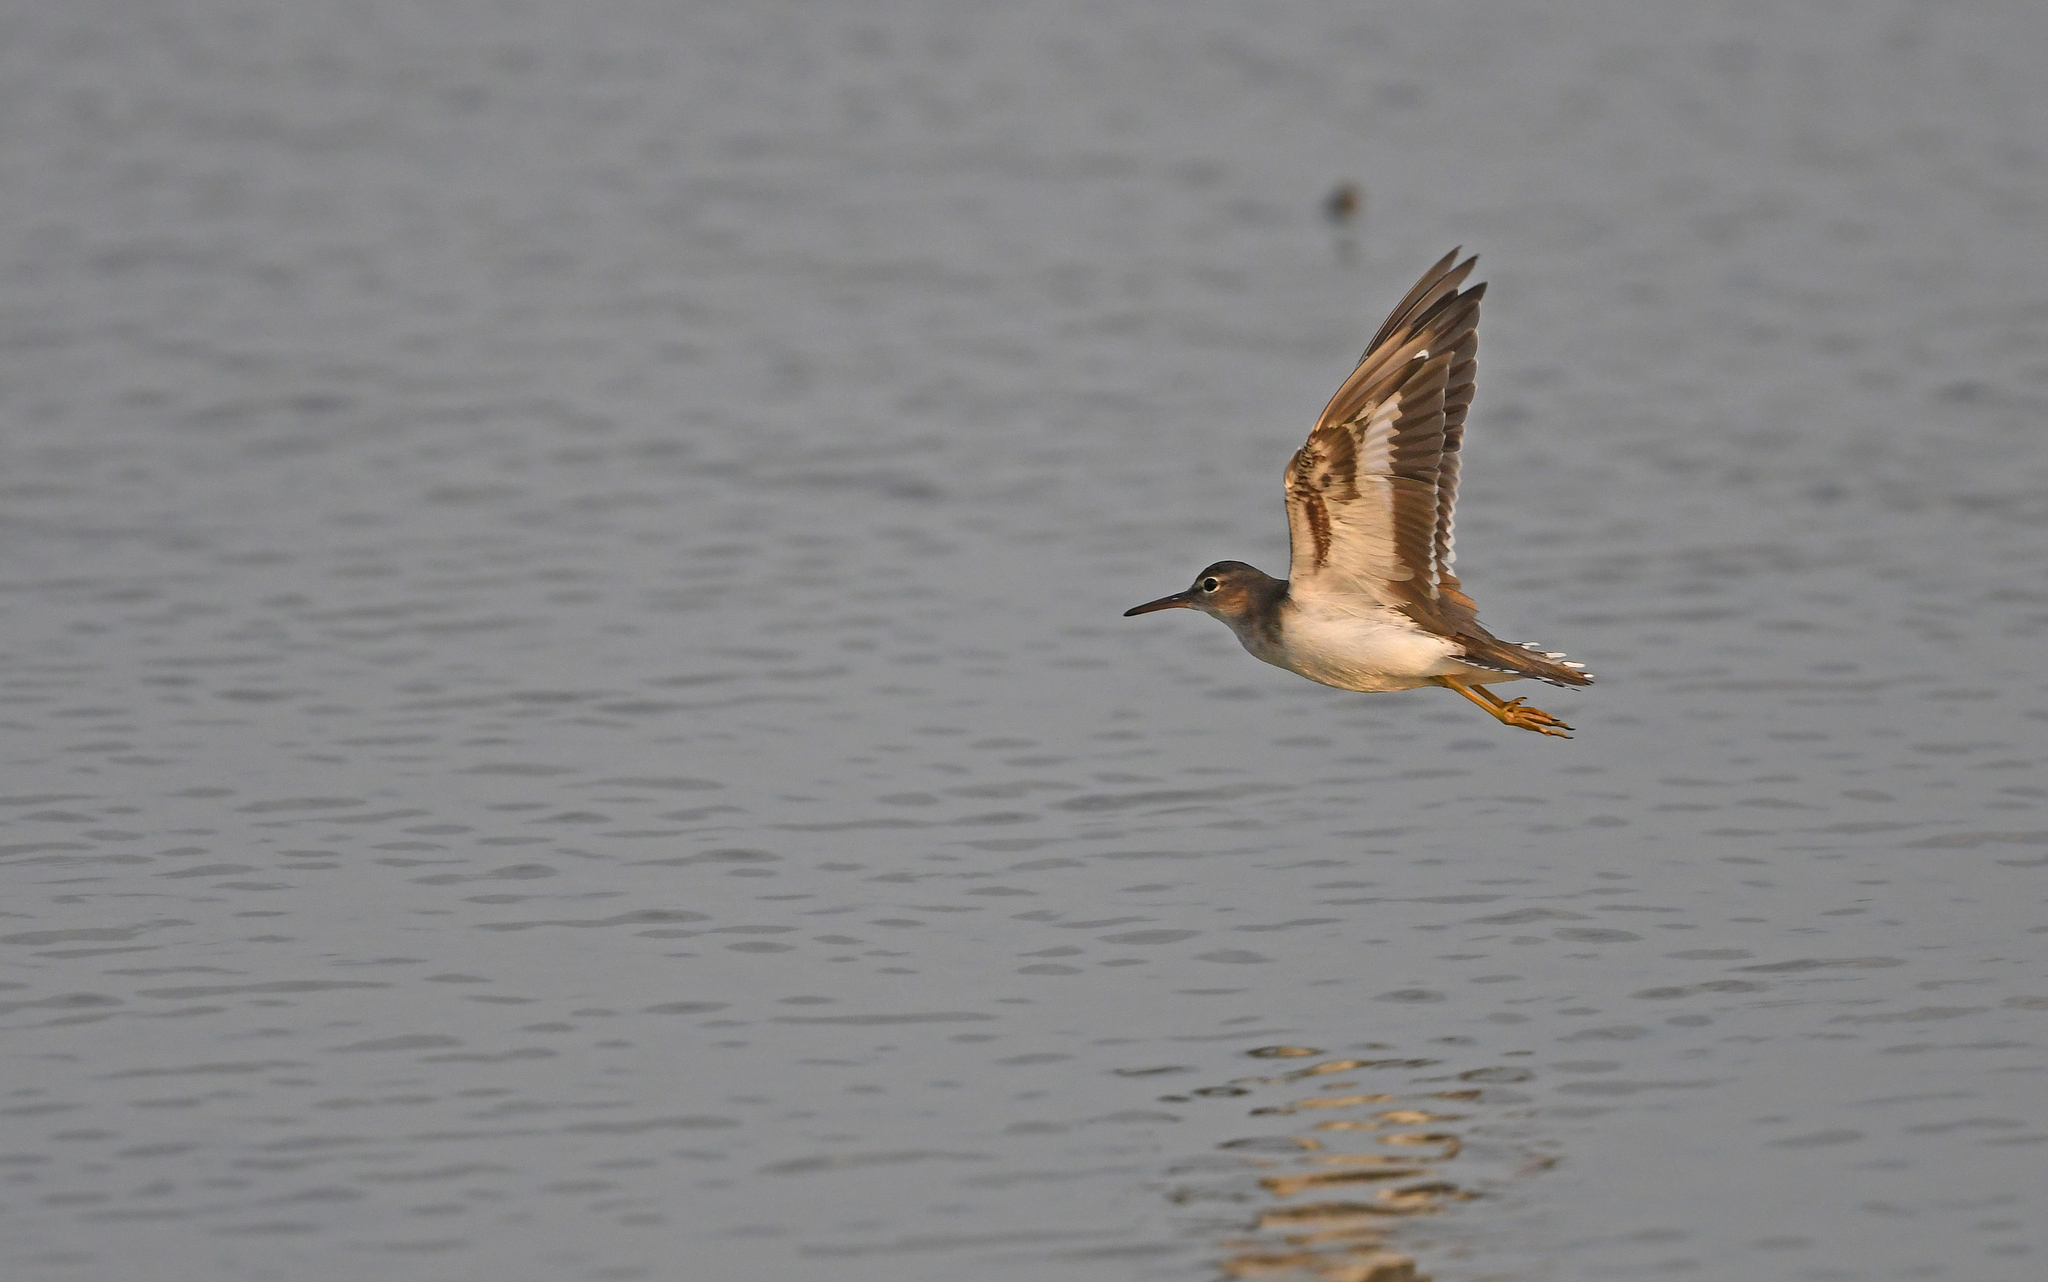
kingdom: Animalia
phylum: Chordata
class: Aves
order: Charadriiformes
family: Scolopacidae
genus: Actitis
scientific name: Actitis macularius
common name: Spotted sandpiper
